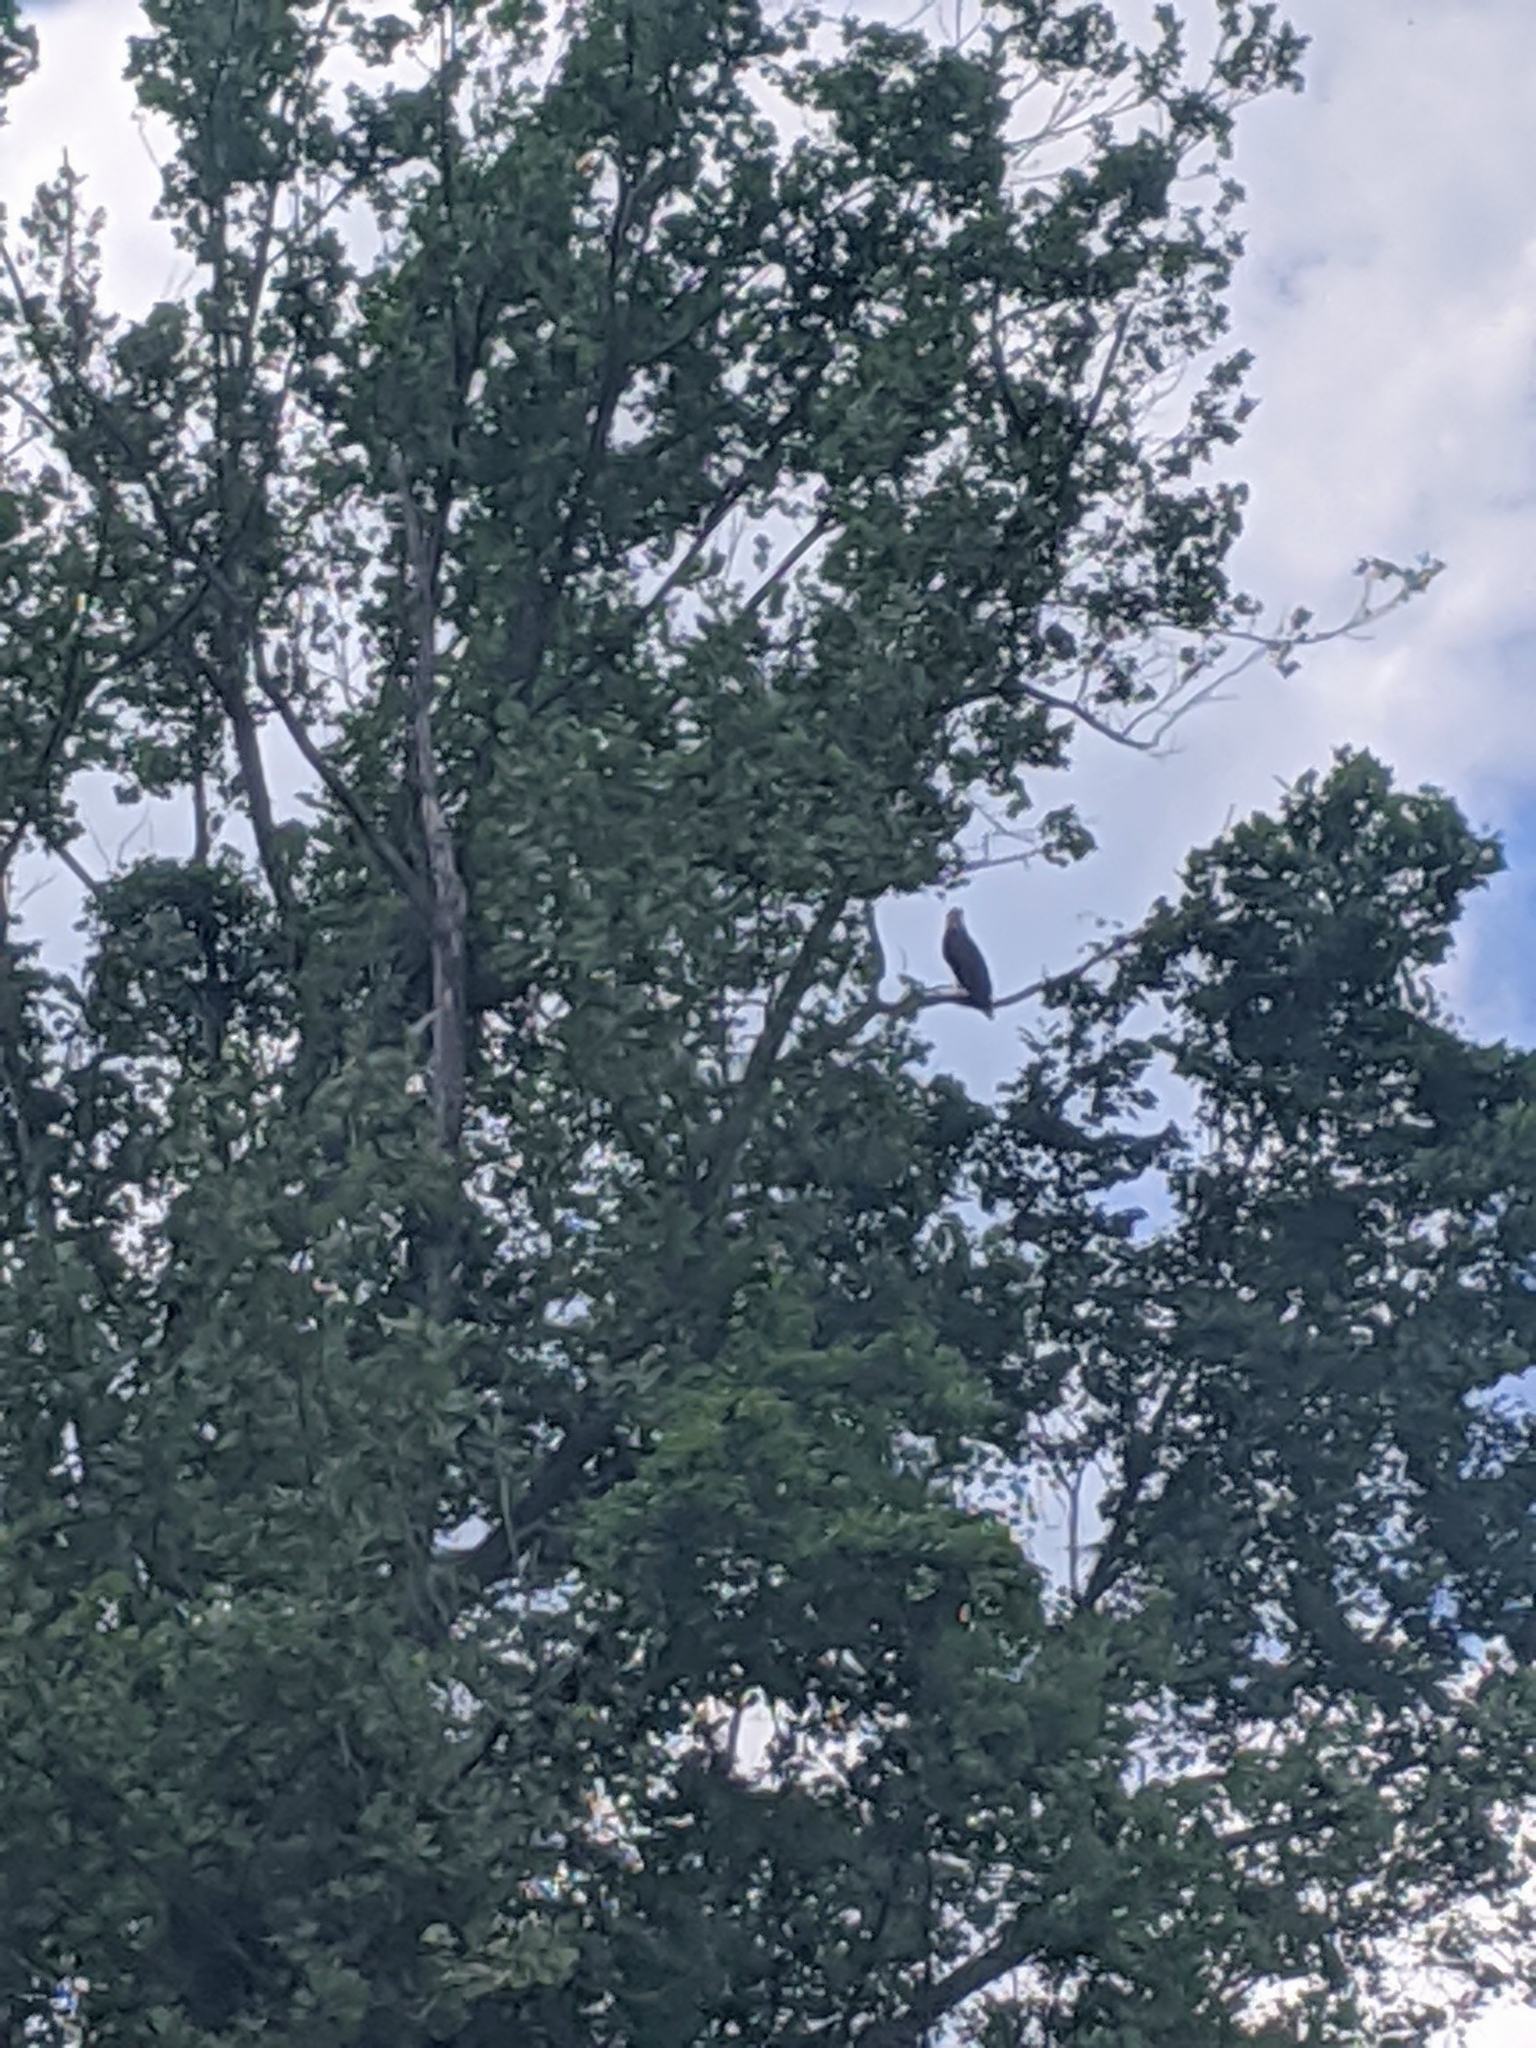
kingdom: Animalia
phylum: Chordata
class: Aves
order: Accipitriformes
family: Accipitridae
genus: Haliaeetus
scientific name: Haliaeetus leucocephalus
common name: Bald eagle
